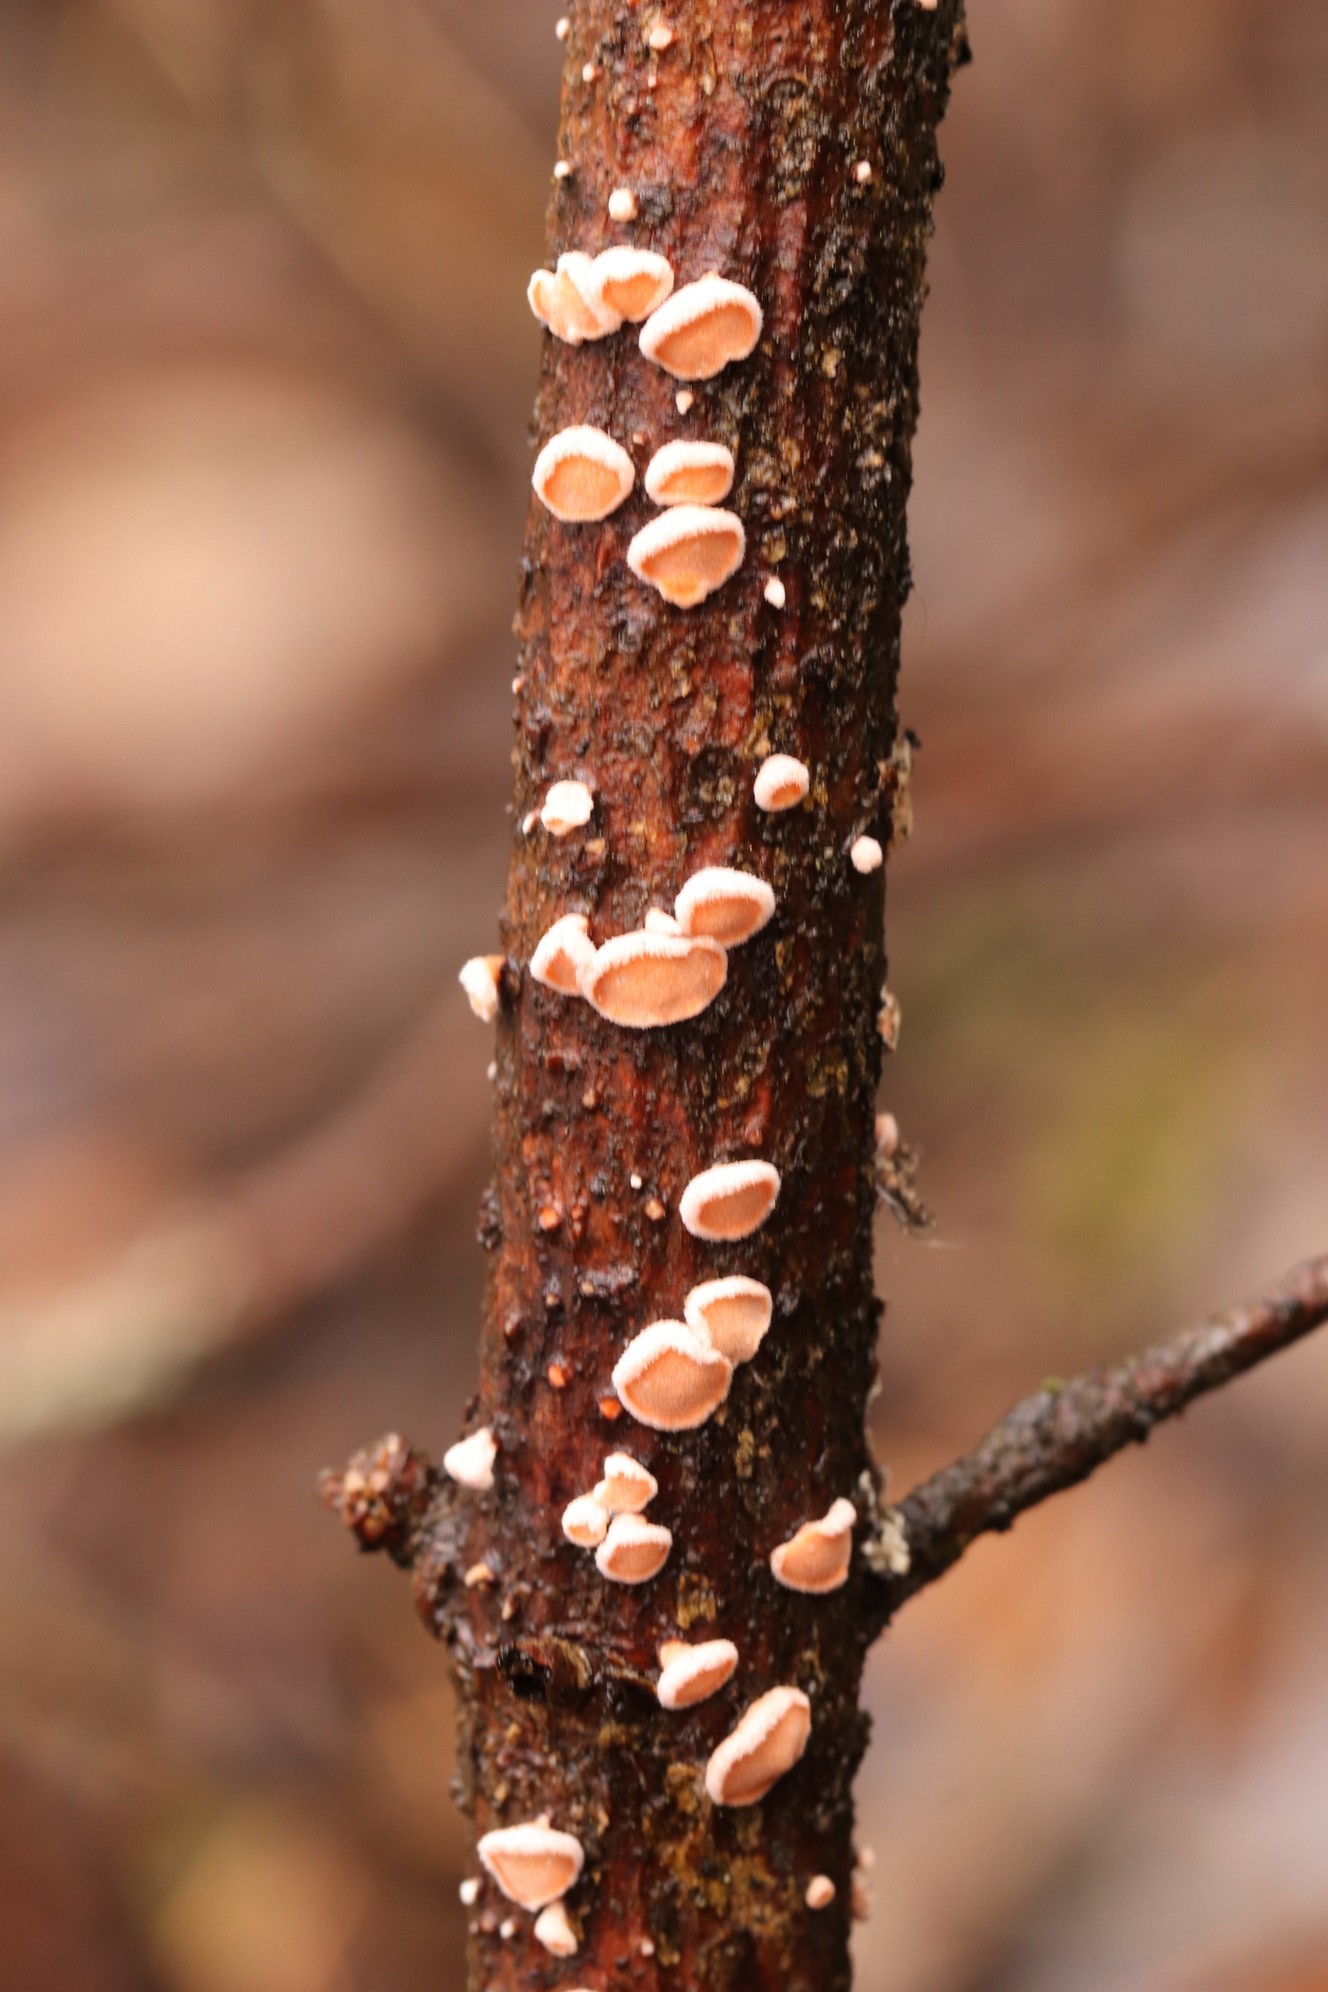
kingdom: Fungi
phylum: Basidiomycota
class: Agaricomycetes
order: Russulales
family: Stereaceae
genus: Aleurodiscus
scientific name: Aleurodiscus amorphus
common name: Orange discus
